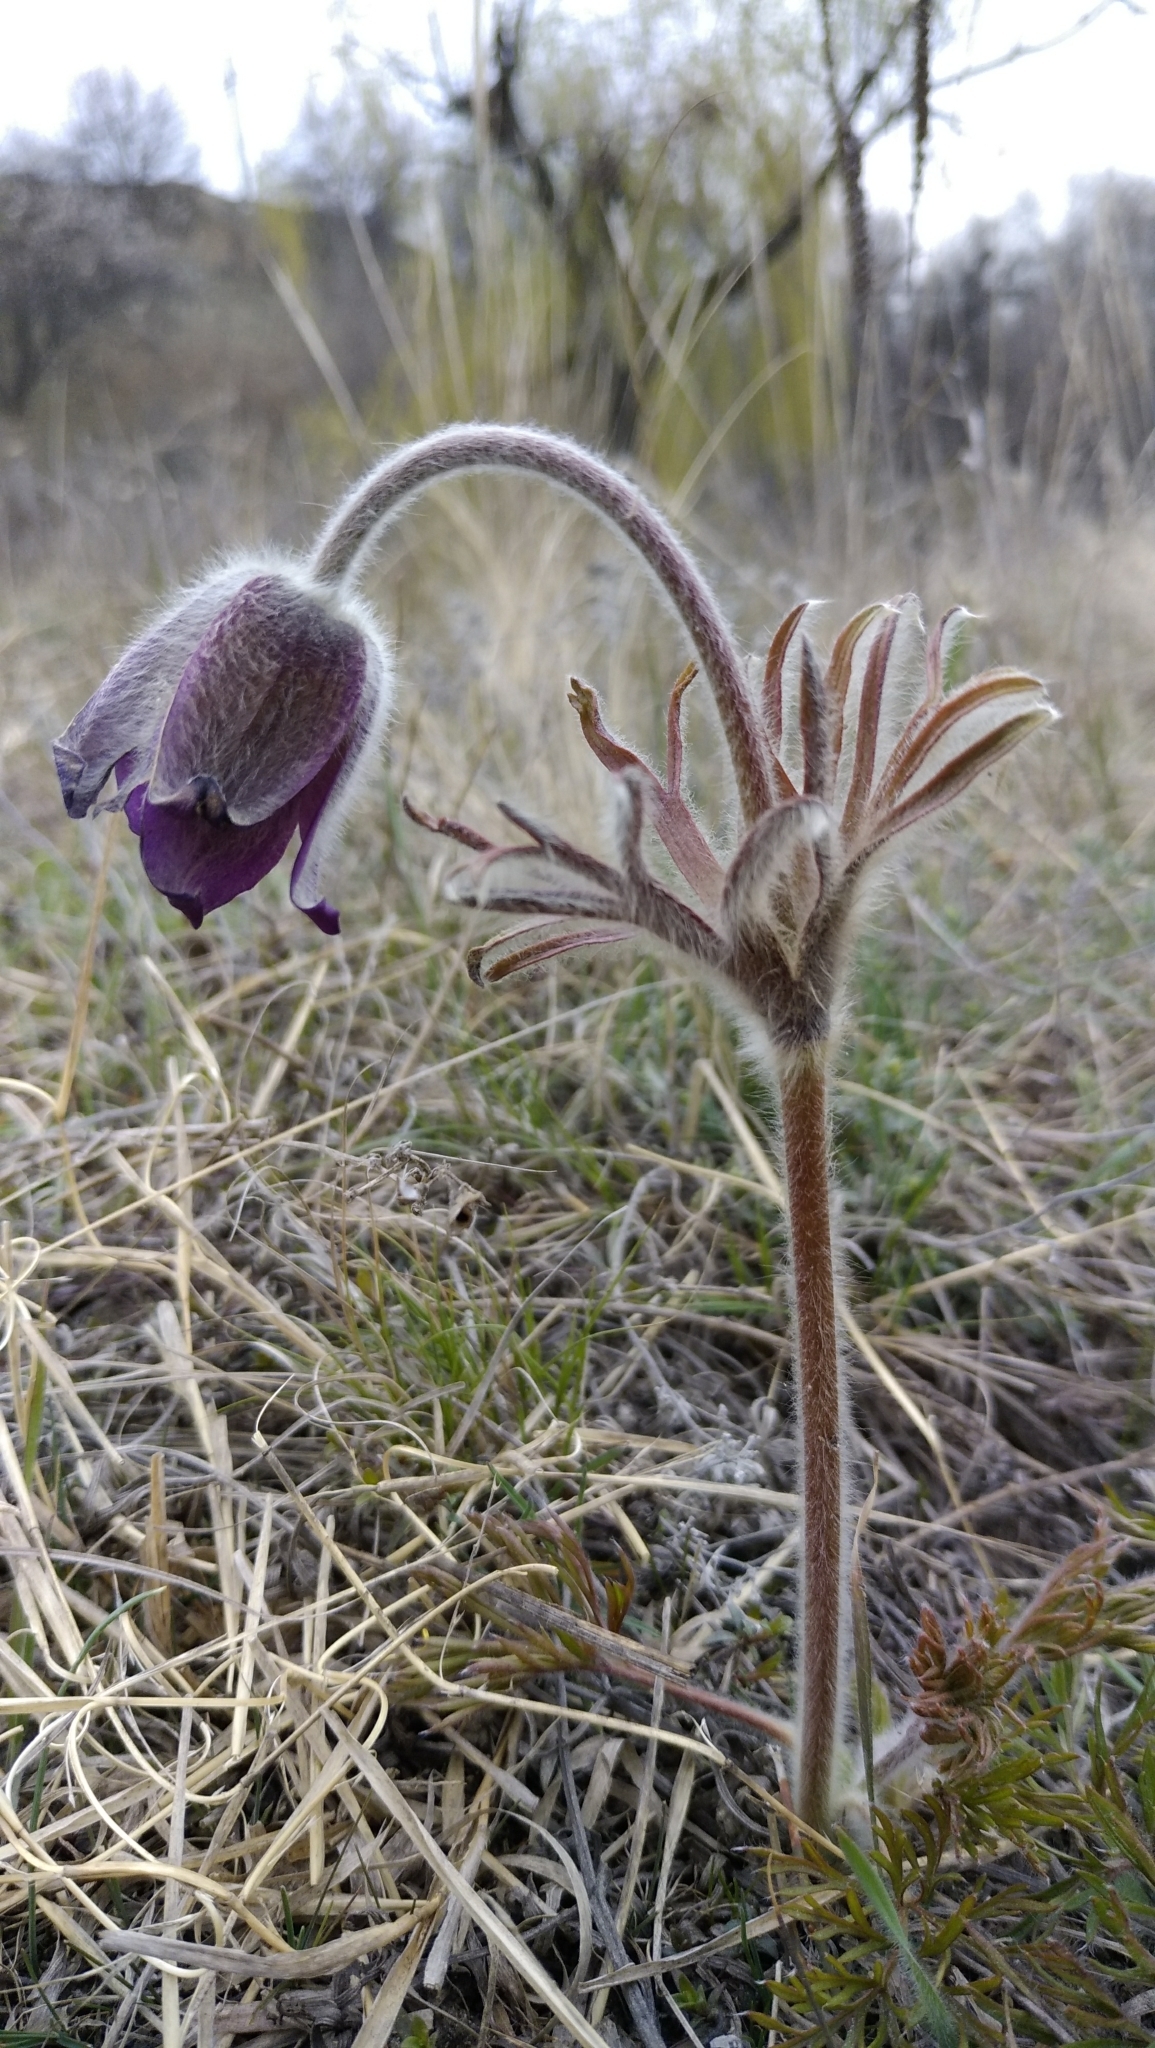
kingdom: Plantae
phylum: Tracheophyta
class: Magnoliopsida
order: Ranunculales
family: Ranunculaceae
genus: Pulsatilla
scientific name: Pulsatilla pratensis
